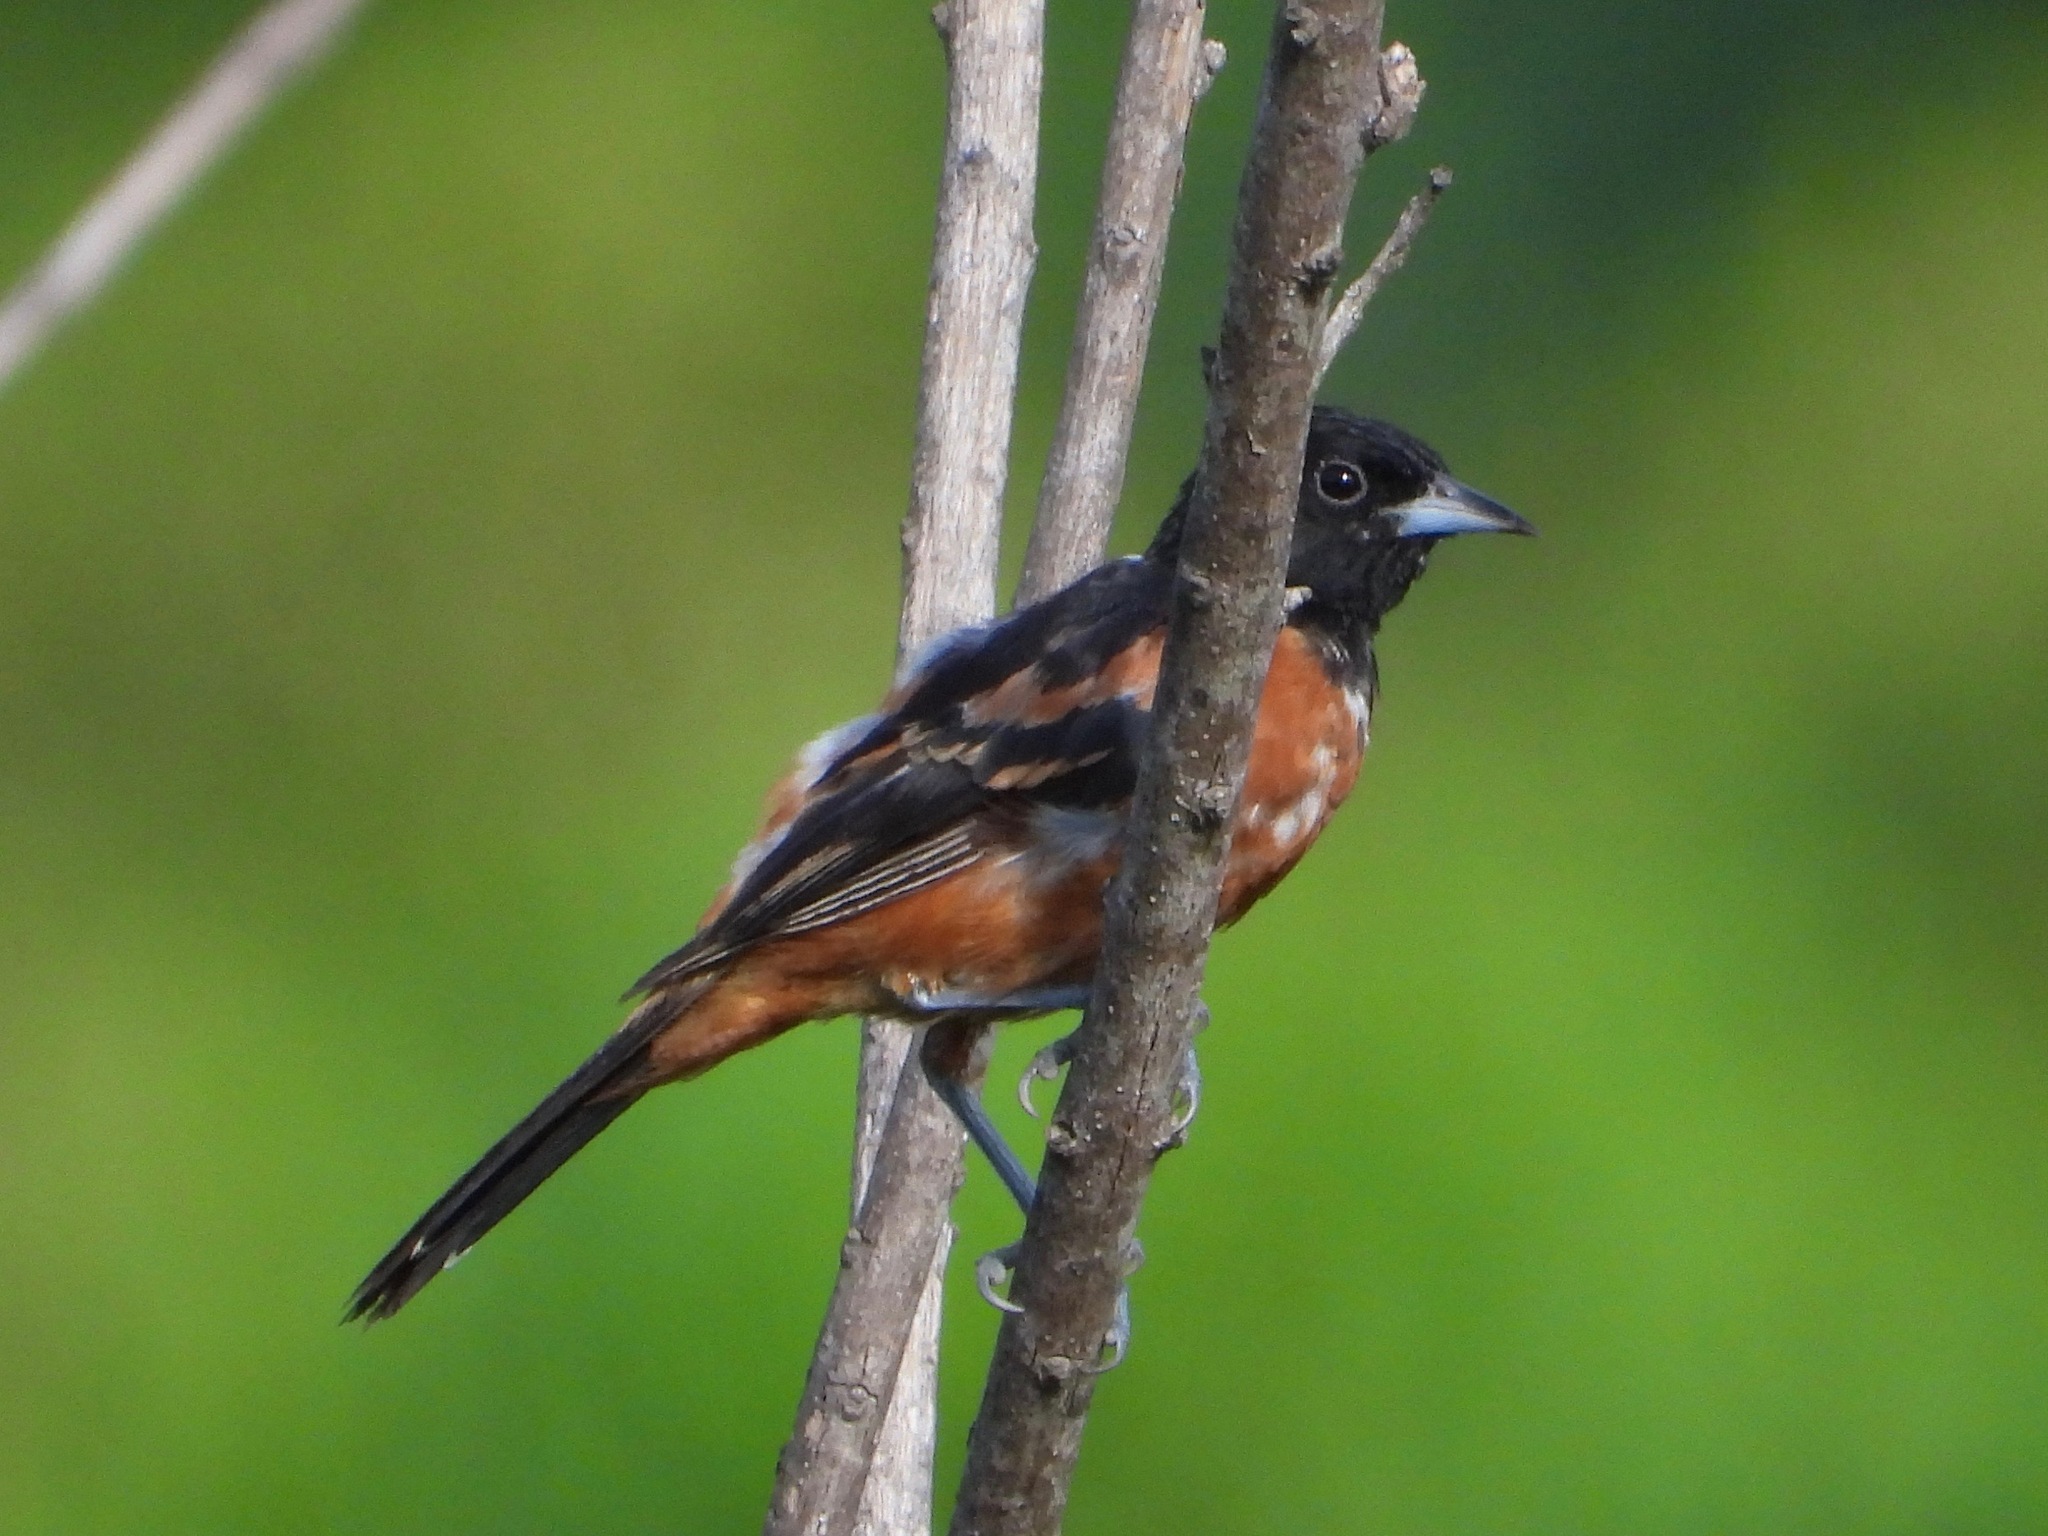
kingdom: Animalia
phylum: Chordata
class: Aves
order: Passeriformes
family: Icteridae
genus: Icterus
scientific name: Icterus spurius
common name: Orchard oriole
